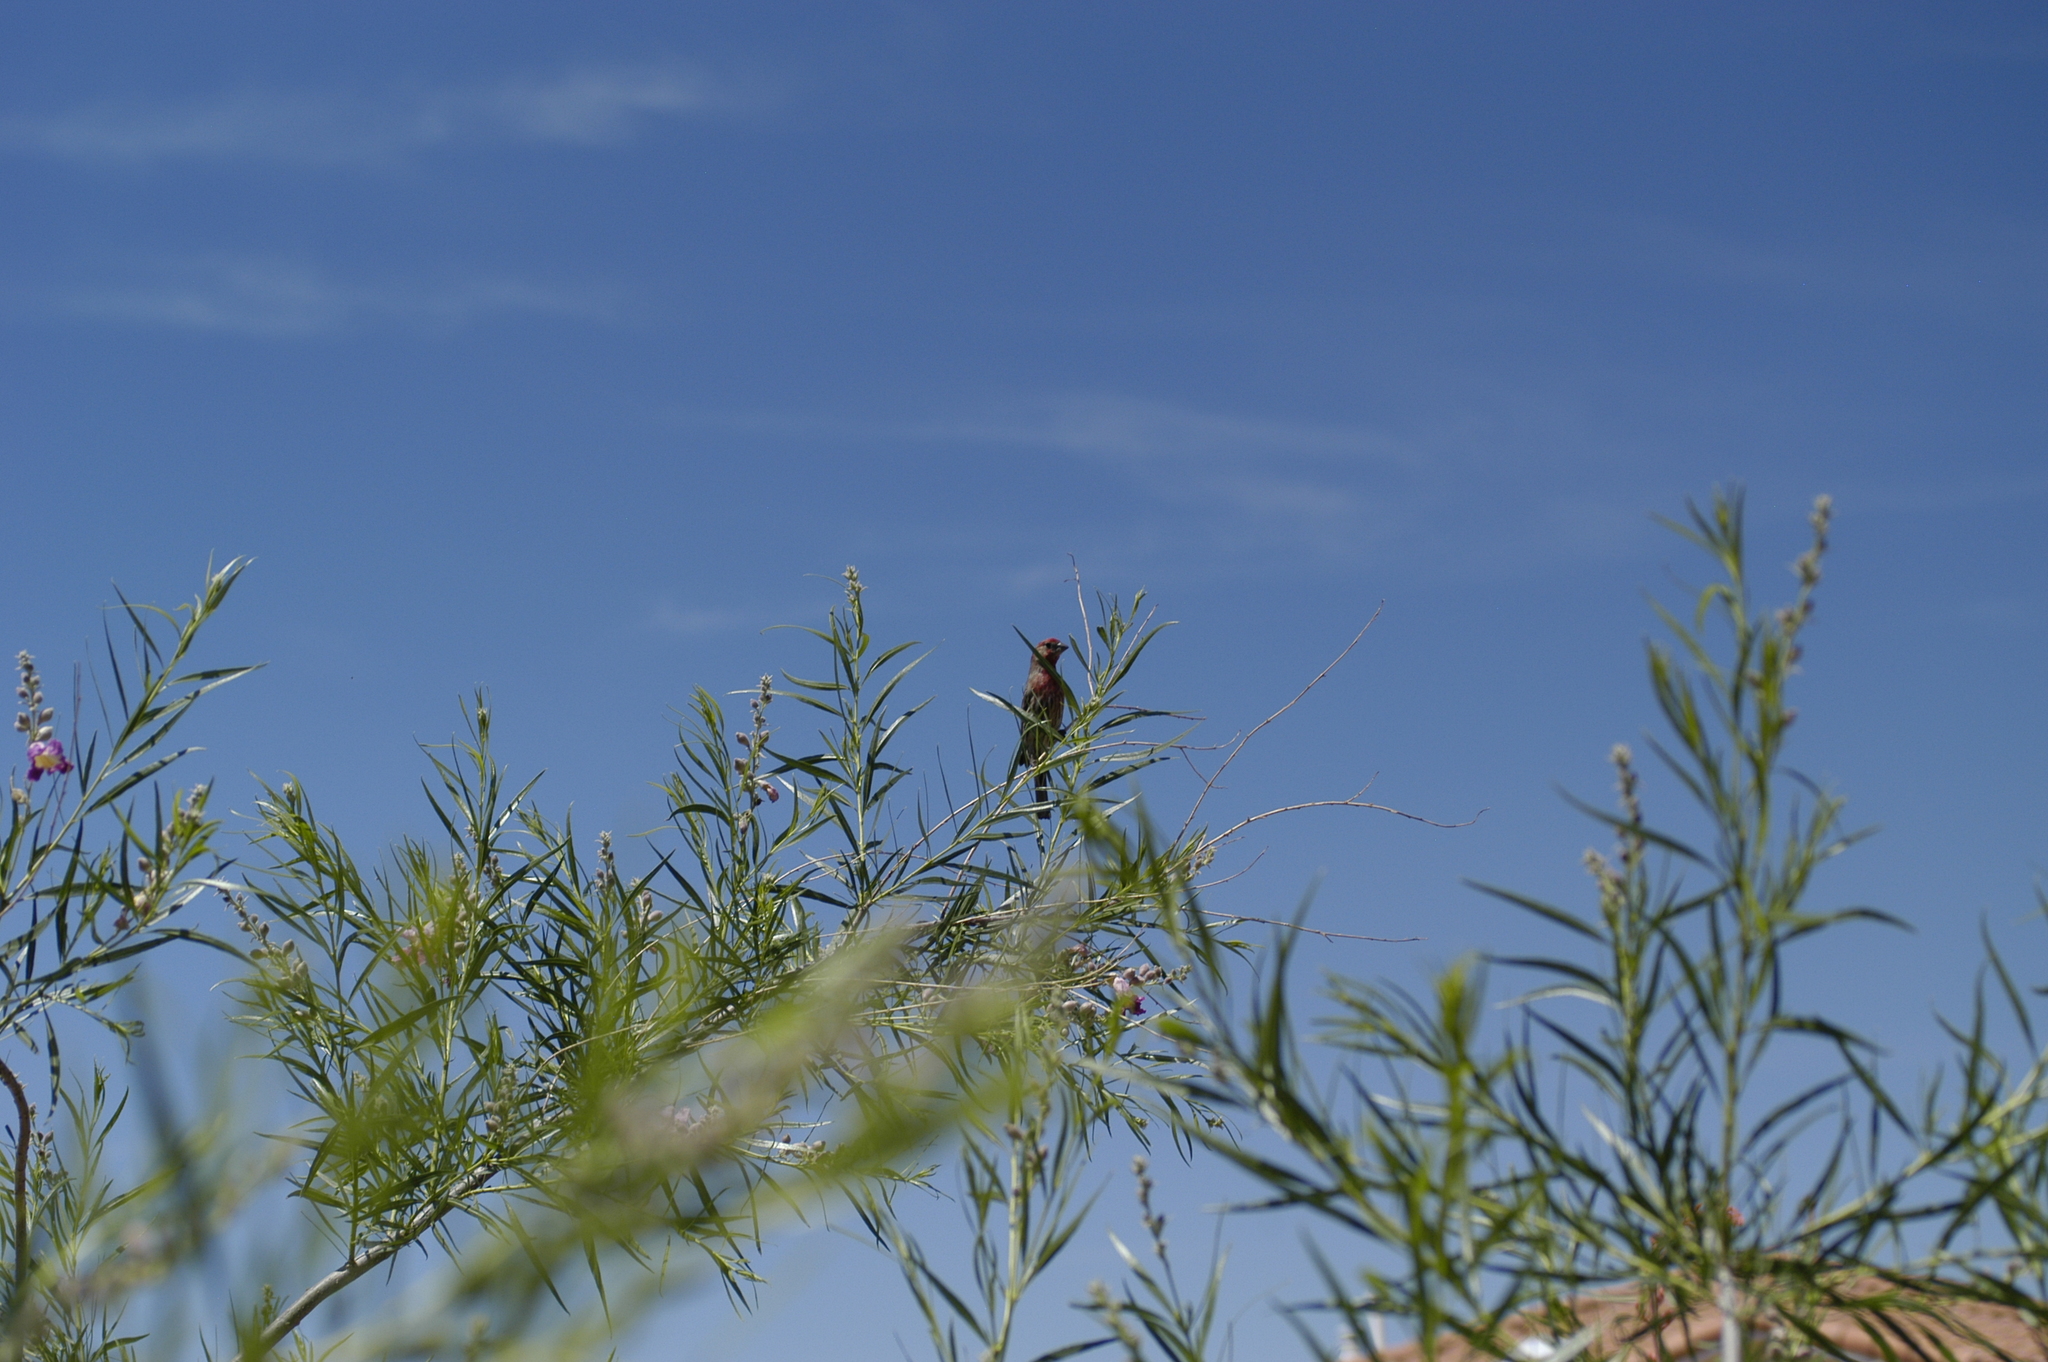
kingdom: Animalia
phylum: Chordata
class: Aves
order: Passeriformes
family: Fringillidae
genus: Haemorhous
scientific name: Haemorhous mexicanus
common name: House finch
